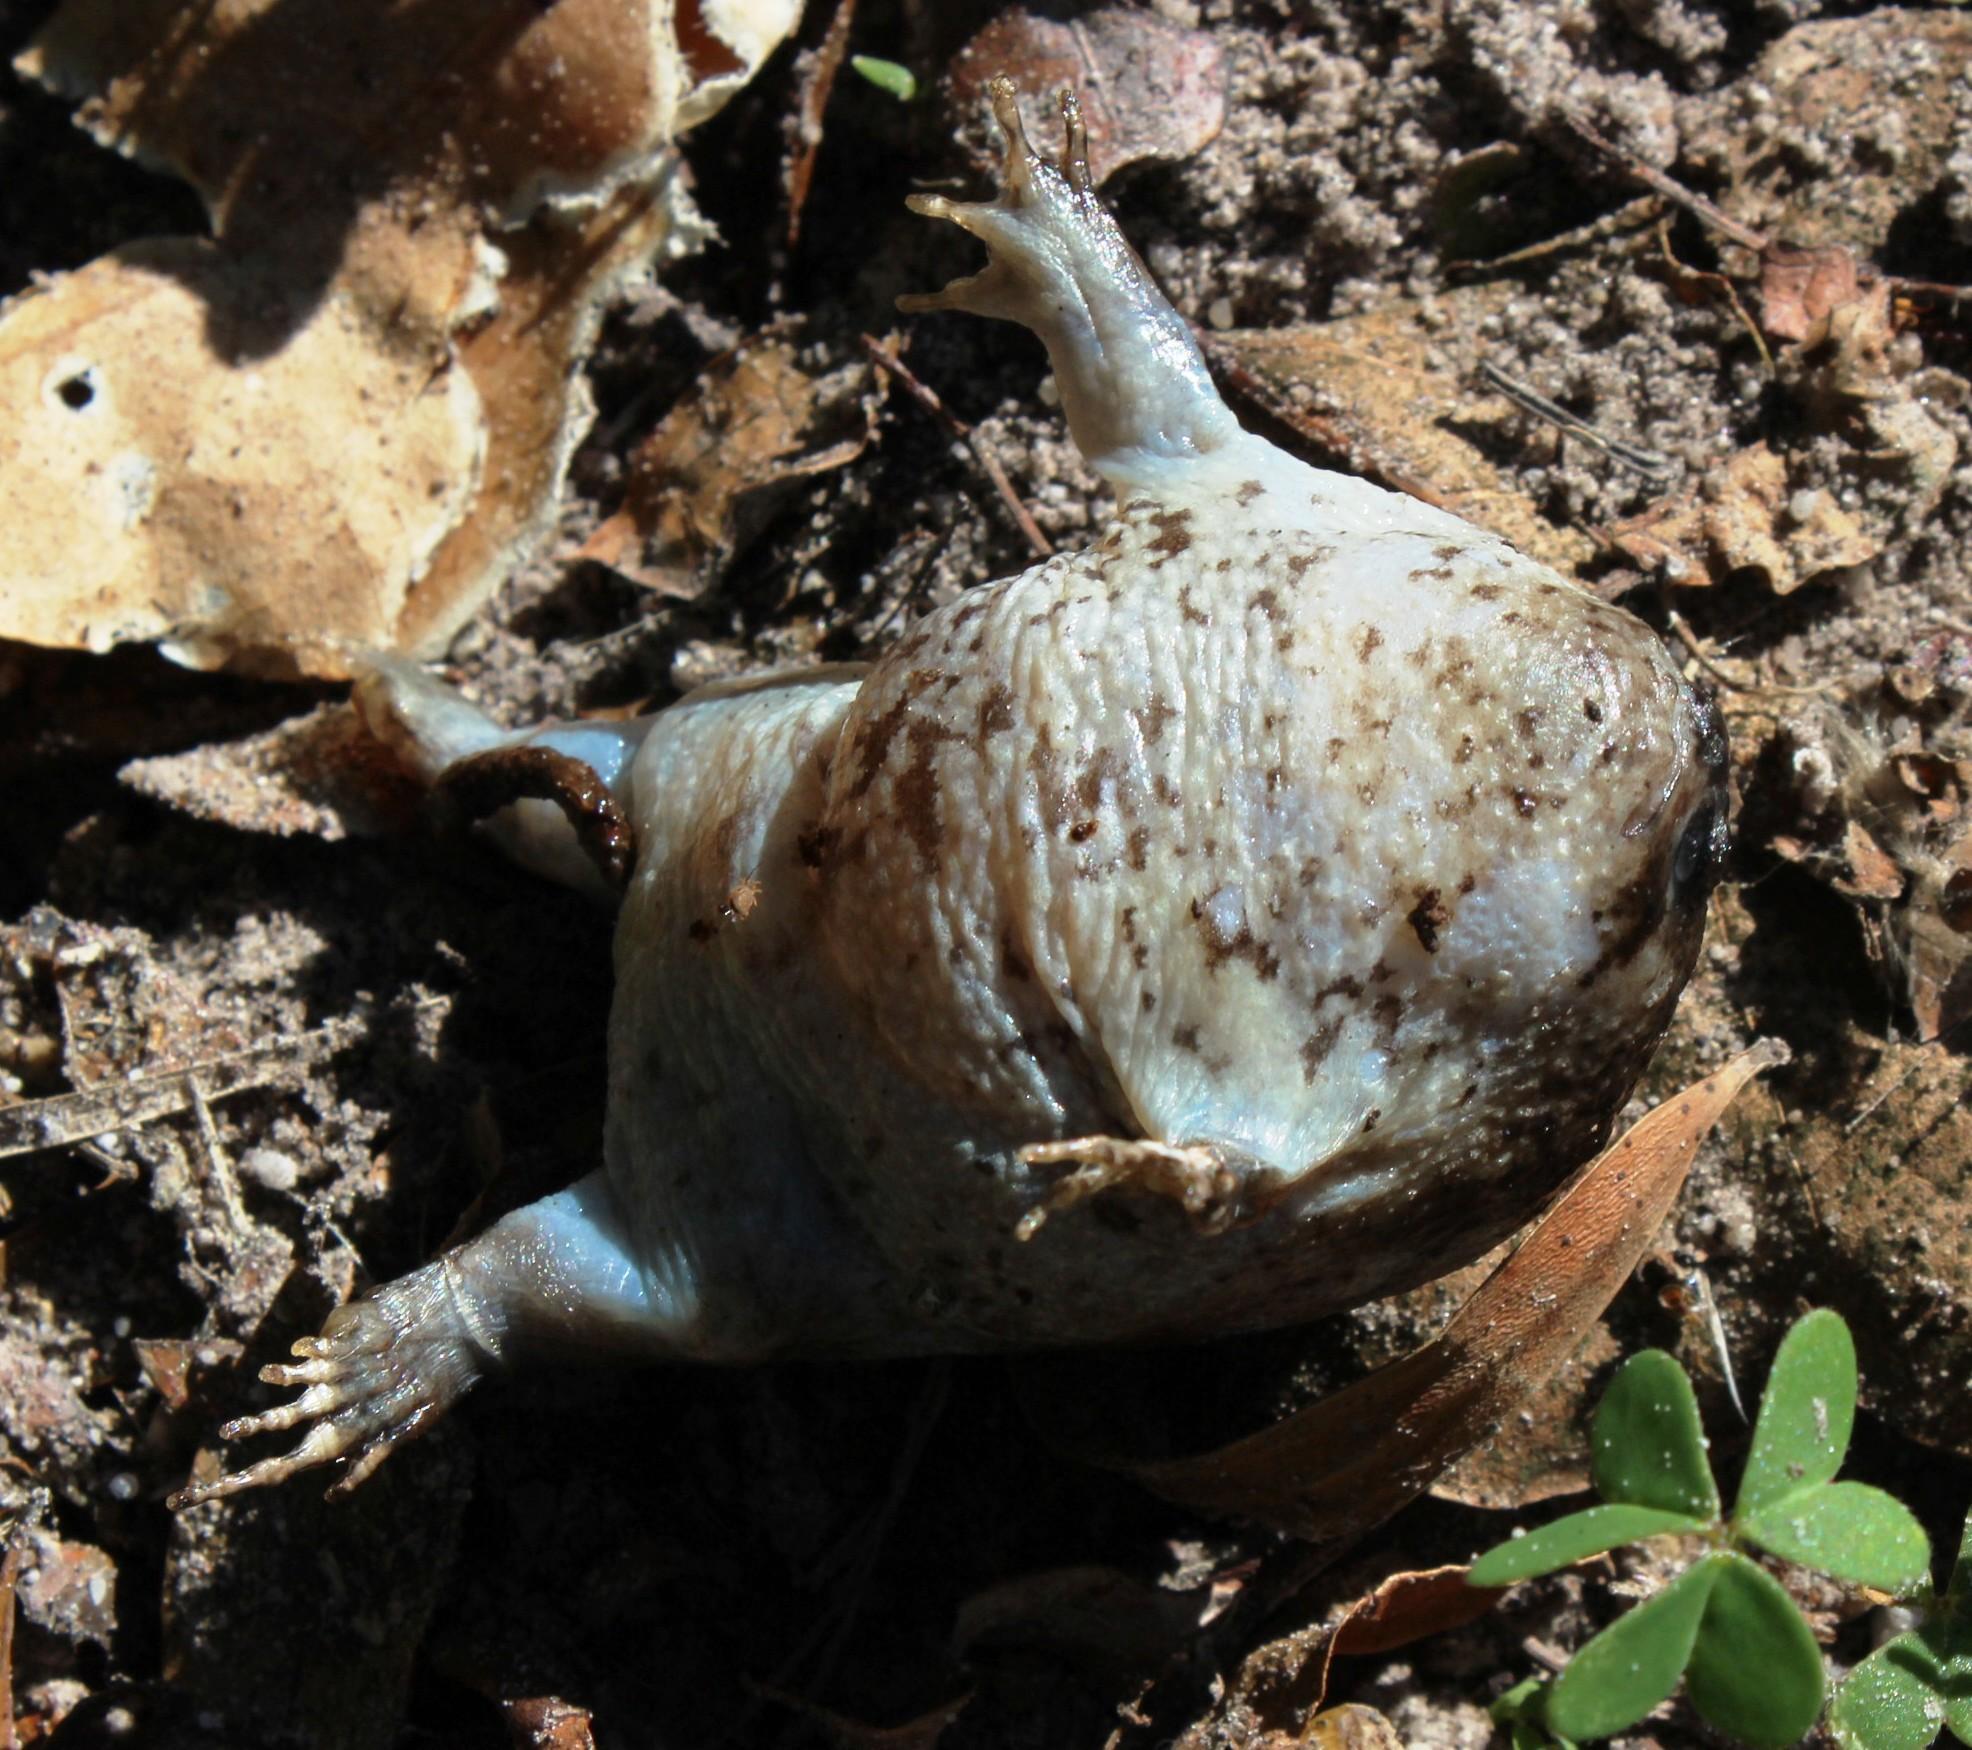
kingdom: Animalia
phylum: Chordata
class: Amphibia
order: Anura
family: Brevicipitidae
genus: Breviceps
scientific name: Breviceps gibbosus
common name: Cape rain frog
